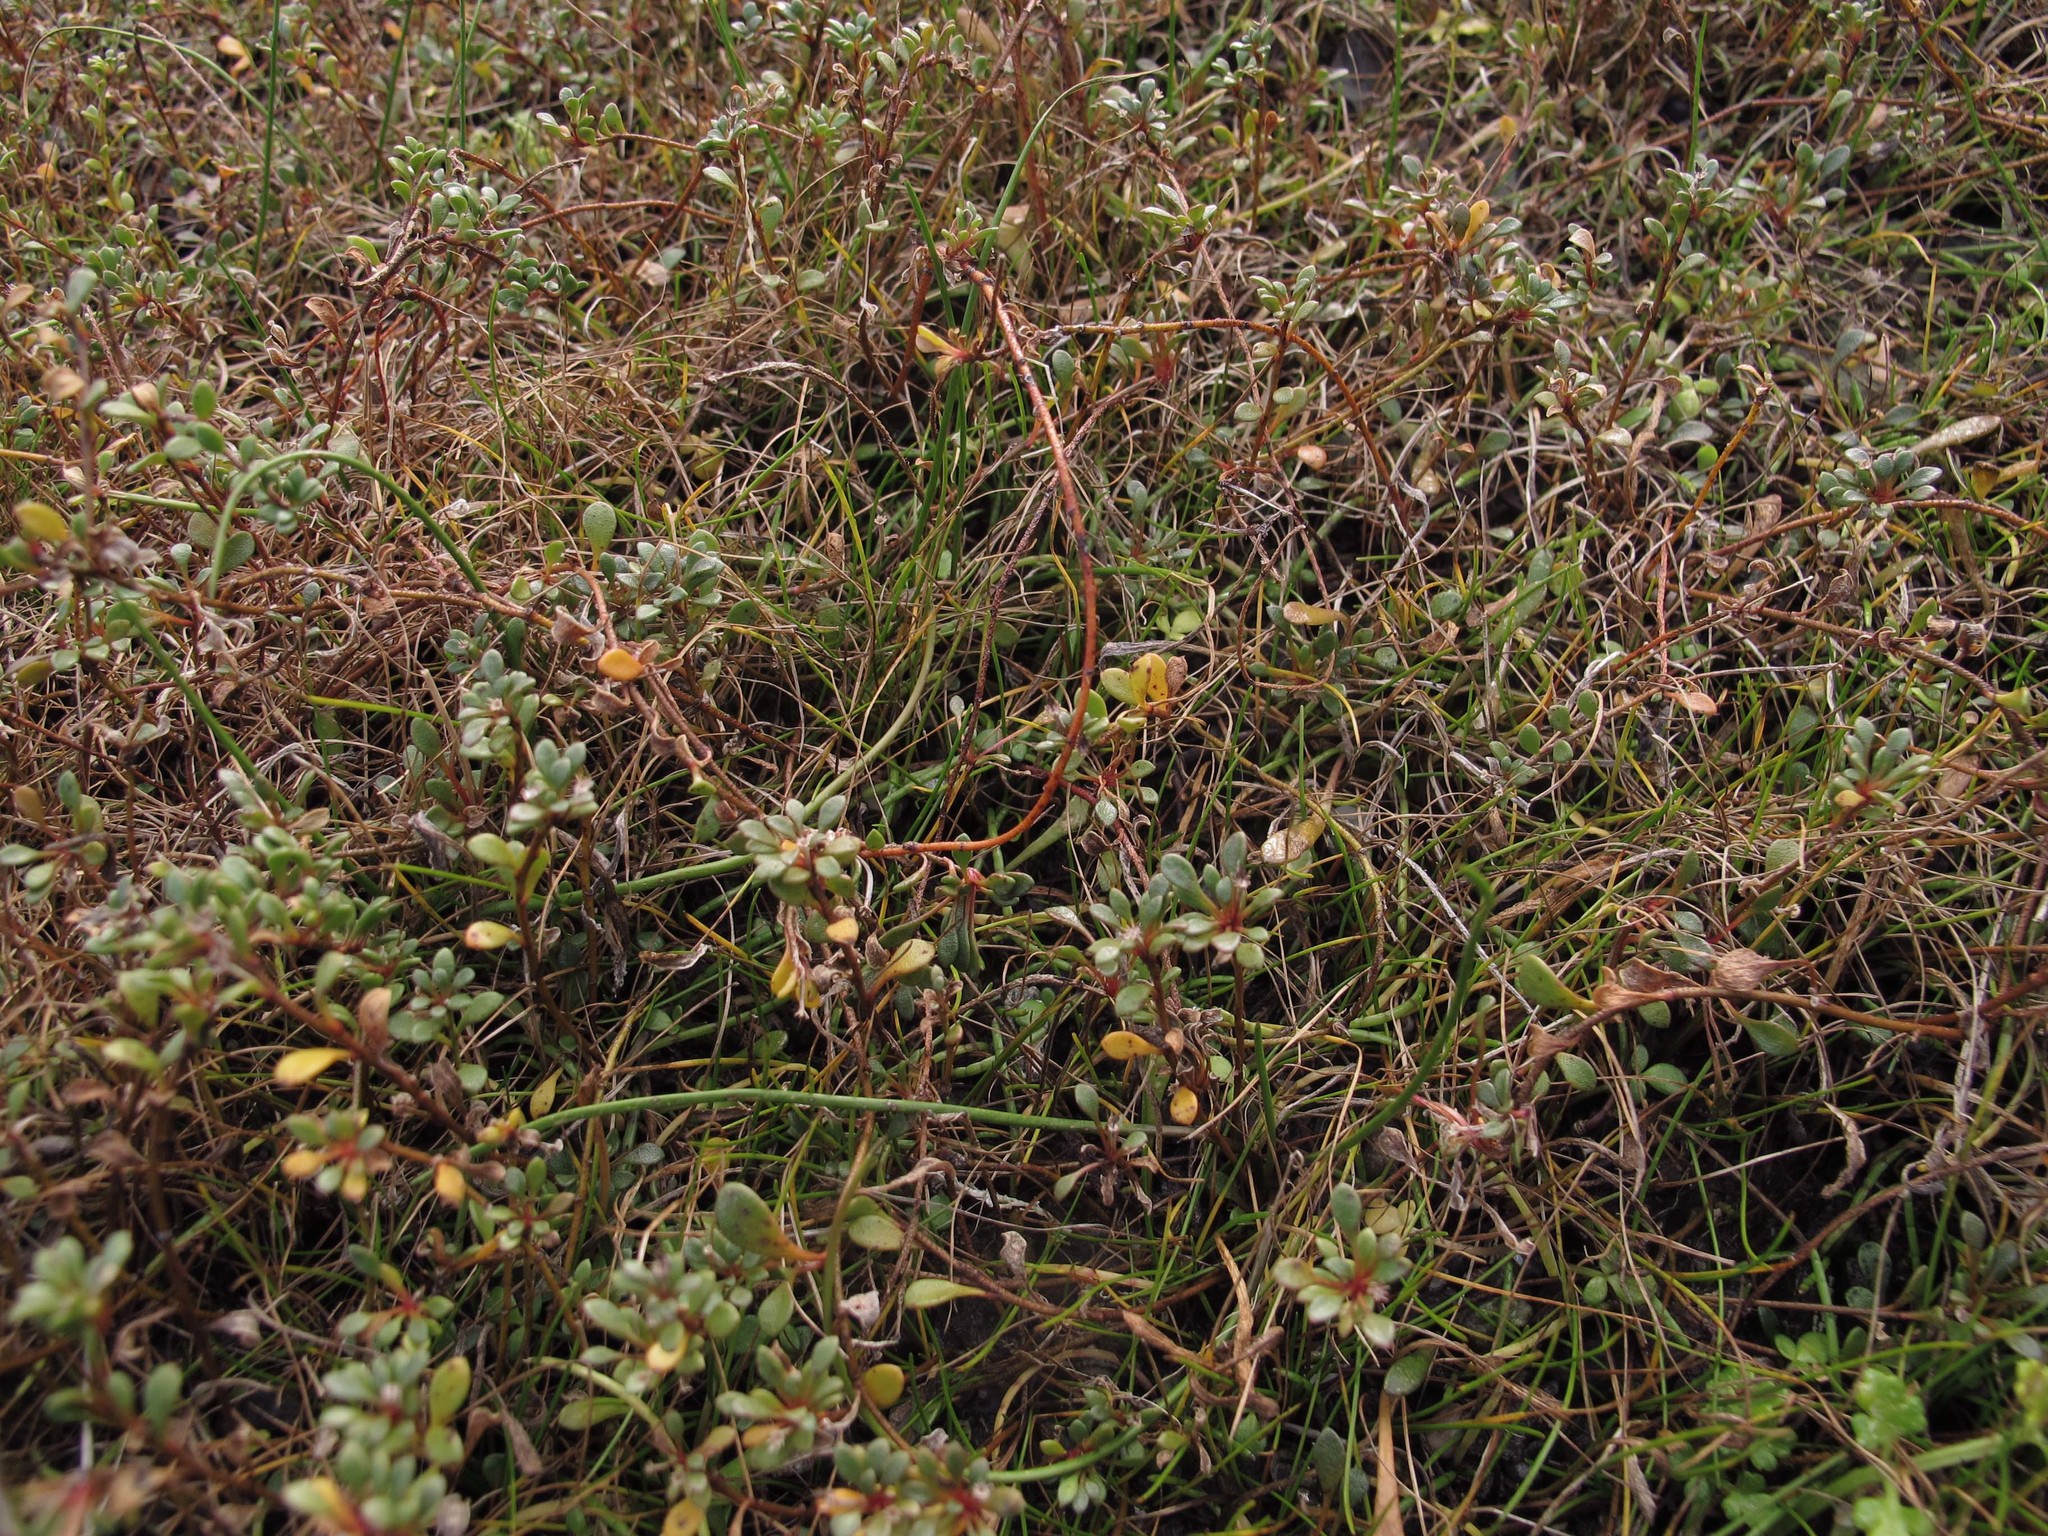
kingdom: Plantae
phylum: Tracheophyta
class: Magnoliopsida
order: Ericales
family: Primulaceae
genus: Samolus
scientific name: Samolus repens
